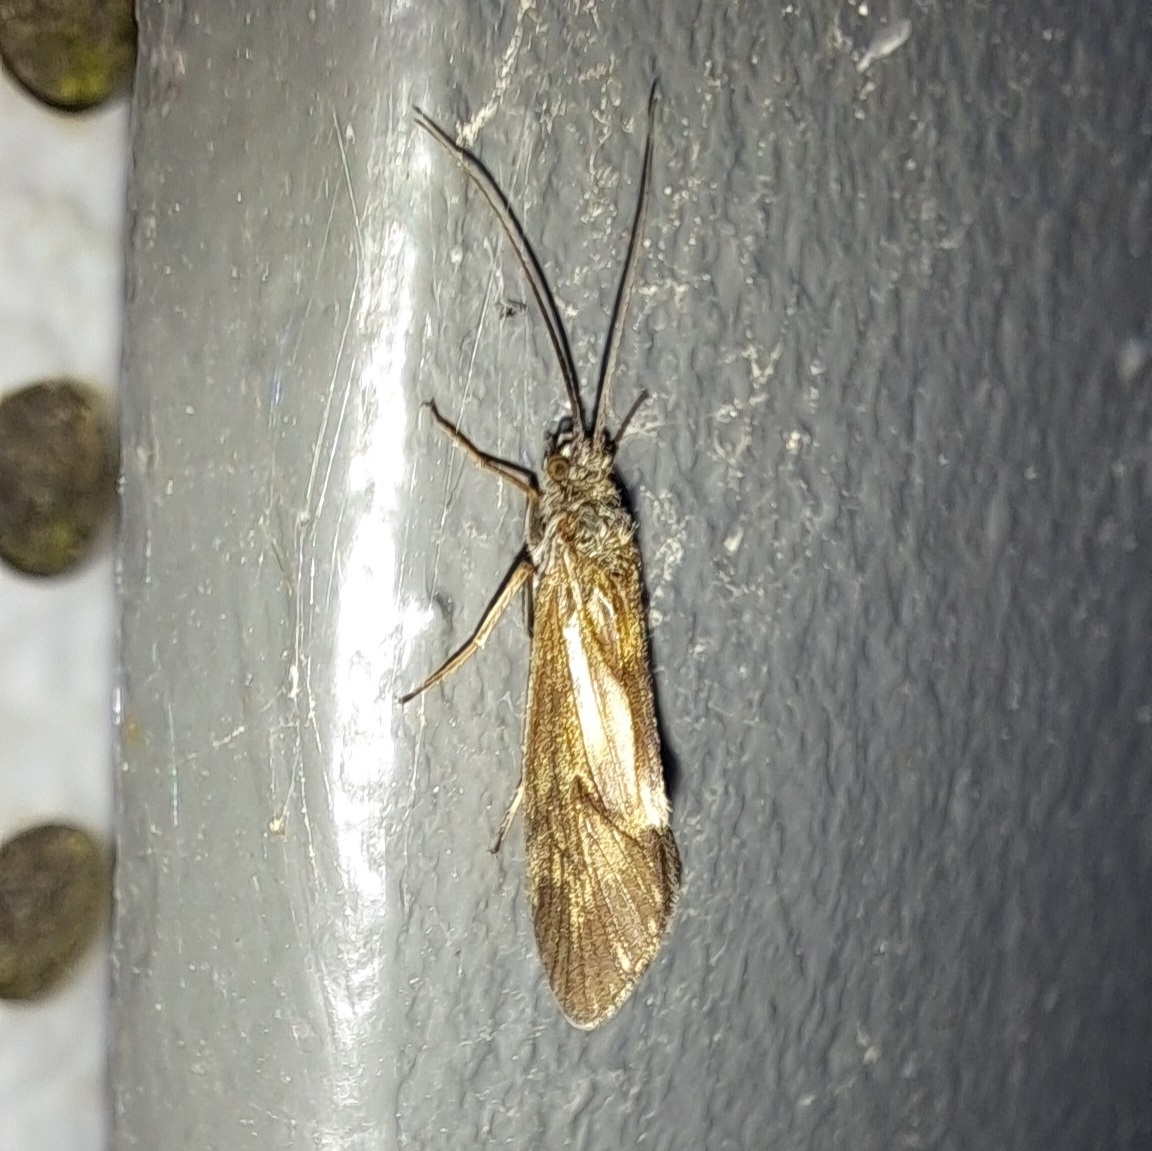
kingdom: Animalia
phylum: Arthropoda
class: Insecta
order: Trichoptera
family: Brachycentridae
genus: Brachycentrus
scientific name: Brachycentrus subnubilis
